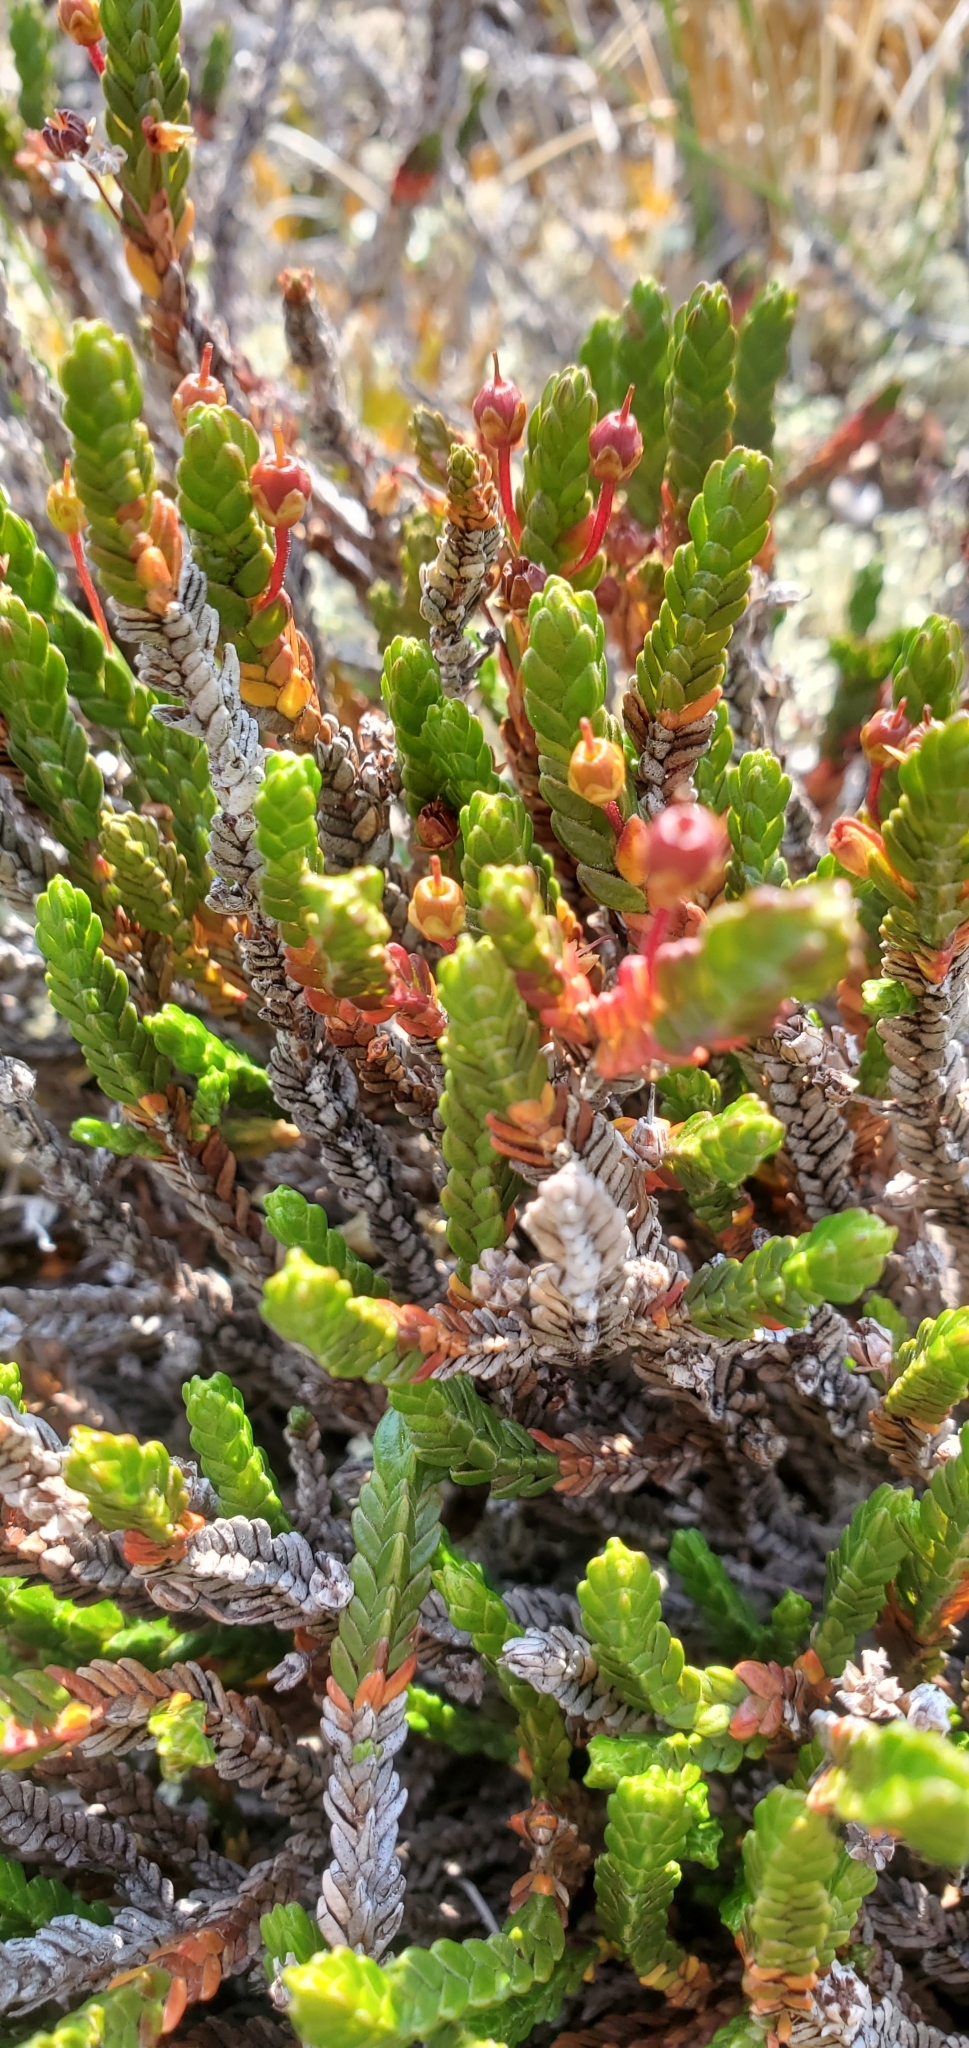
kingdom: Plantae
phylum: Tracheophyta
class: Magnoliopsida
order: Ericales
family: Ericaceae
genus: Cassiope
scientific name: Cassiope tetragona
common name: Arctic bell heather
